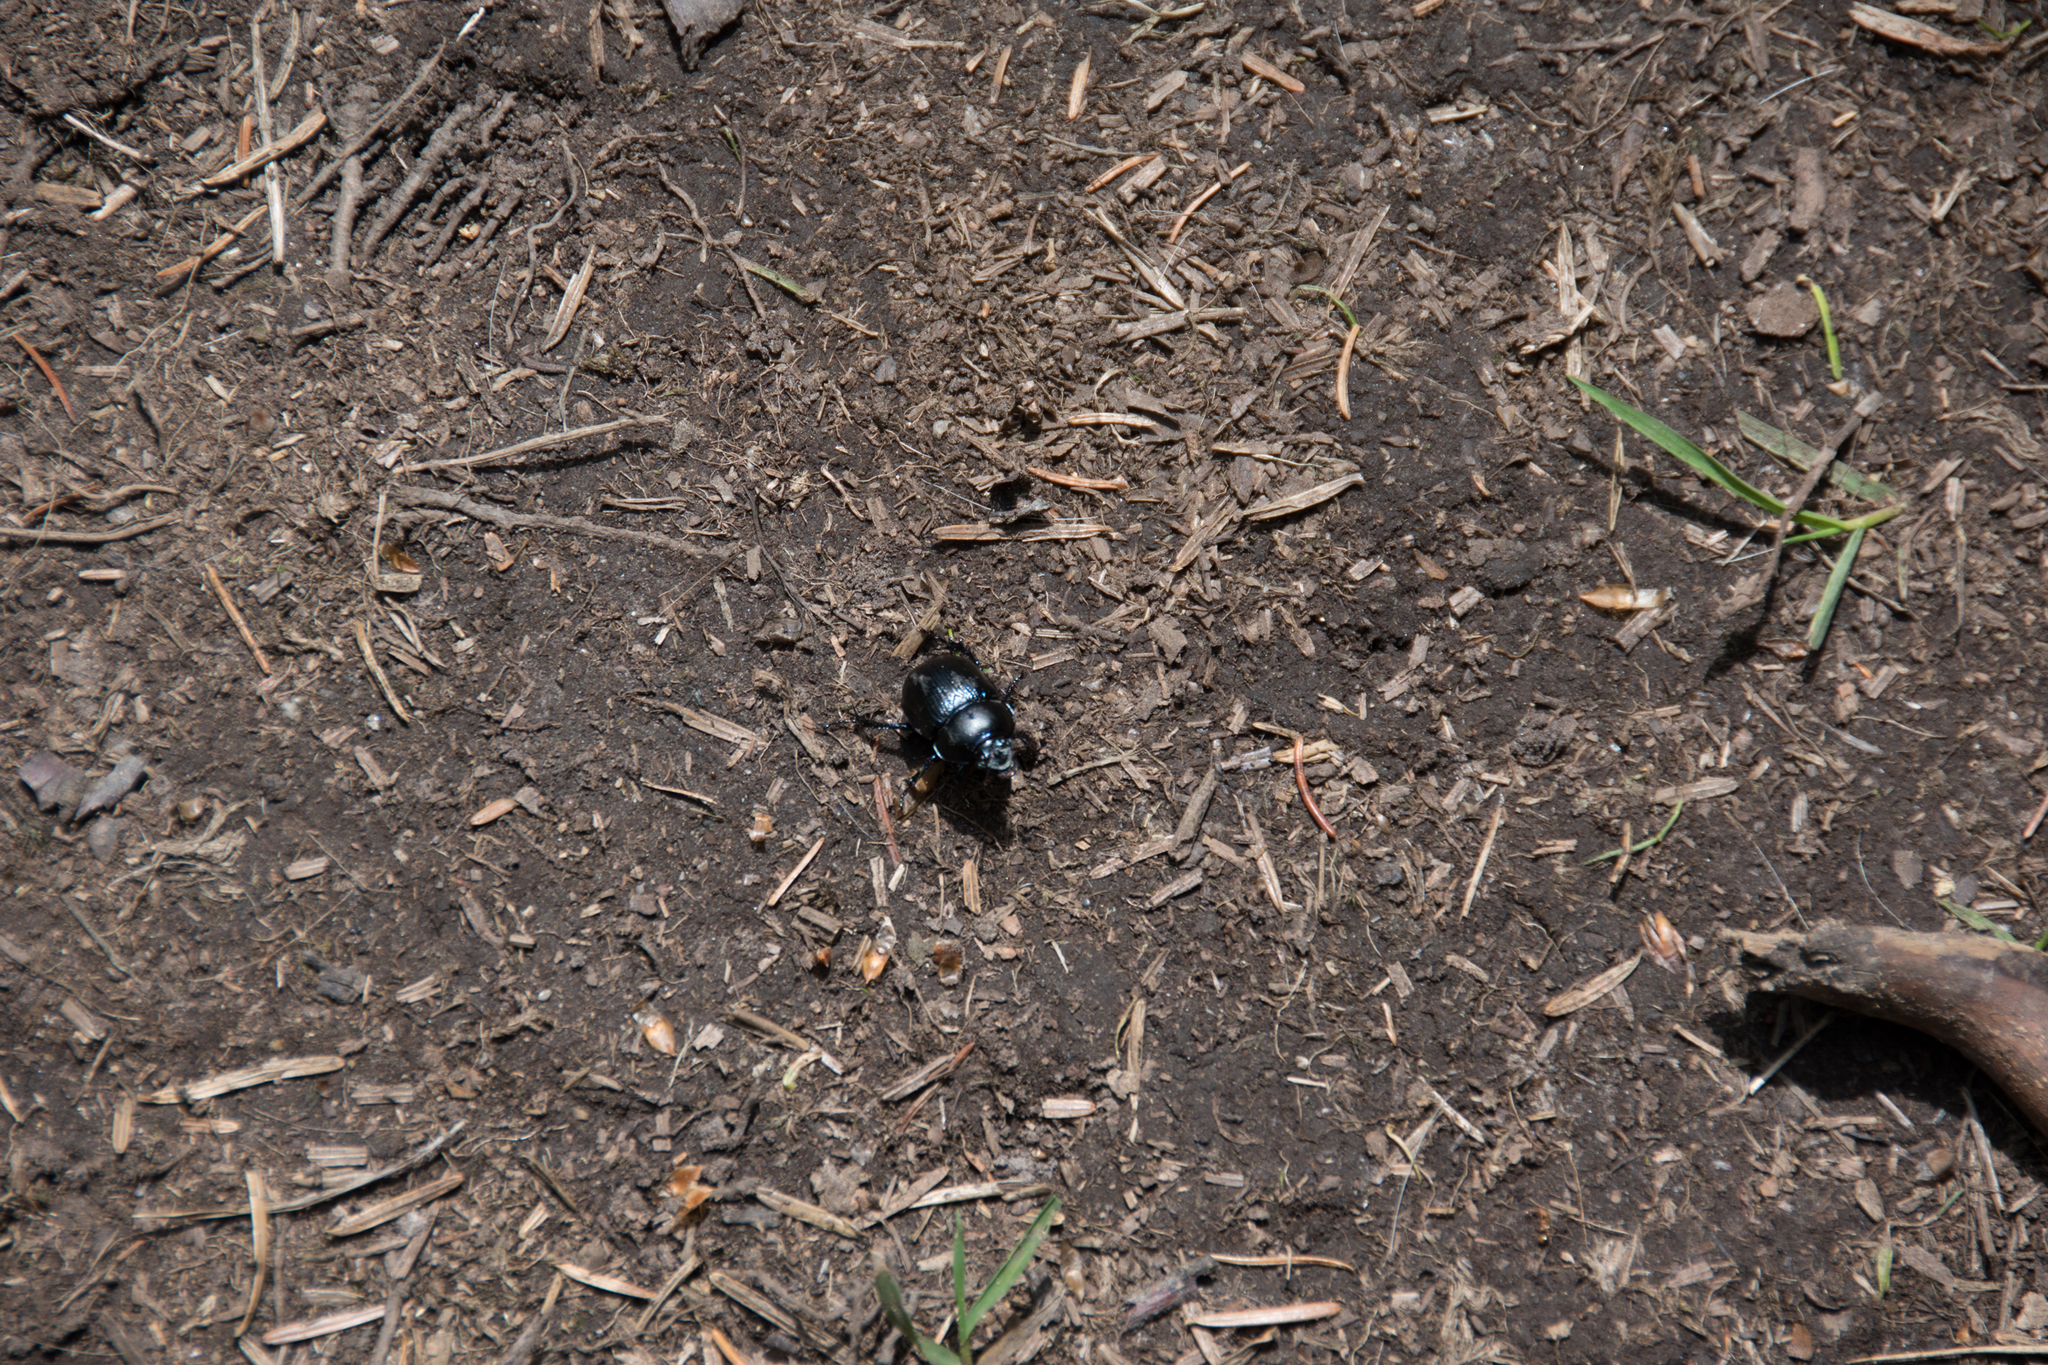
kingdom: Animalia
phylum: Arthropoda
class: Insecta
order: Coleoptera
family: Geotrupidae
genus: Anoplotrupes
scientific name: Anoplotrupes stercorosus
